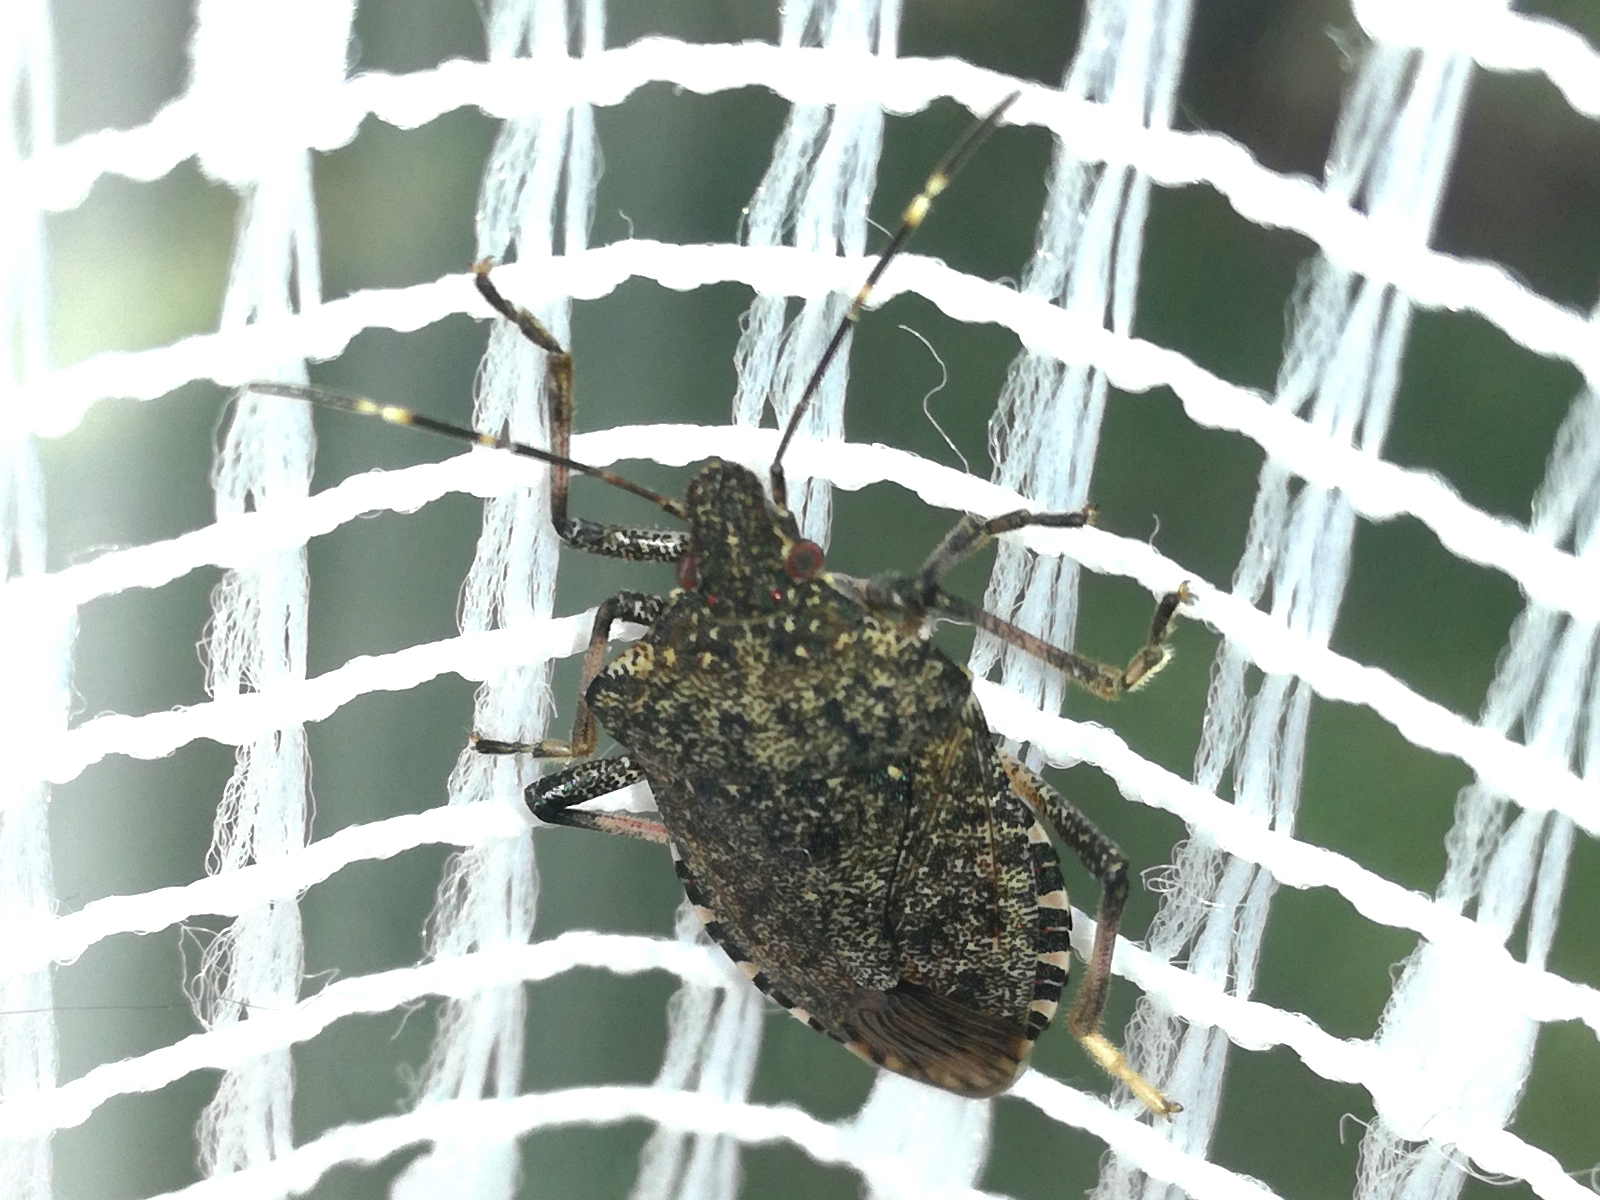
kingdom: Animalia
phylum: Arthropoda
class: Insecta
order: Hemiptera
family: Pentatomidae
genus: Halyomorpha
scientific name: Halyomorpha halys
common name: Brown marmorated stink bug
